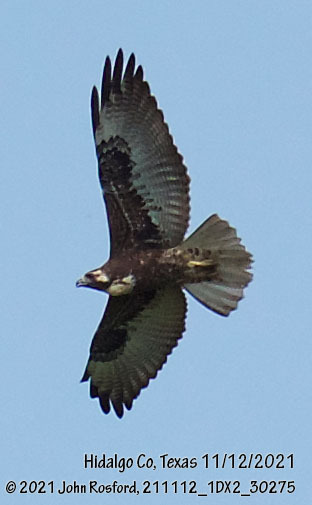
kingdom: Animalia
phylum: Chordata
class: Aves
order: Accipitriformes
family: Accipitridae
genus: Buteo
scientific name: Buteo albicaudatus
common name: White-tailed hawk
